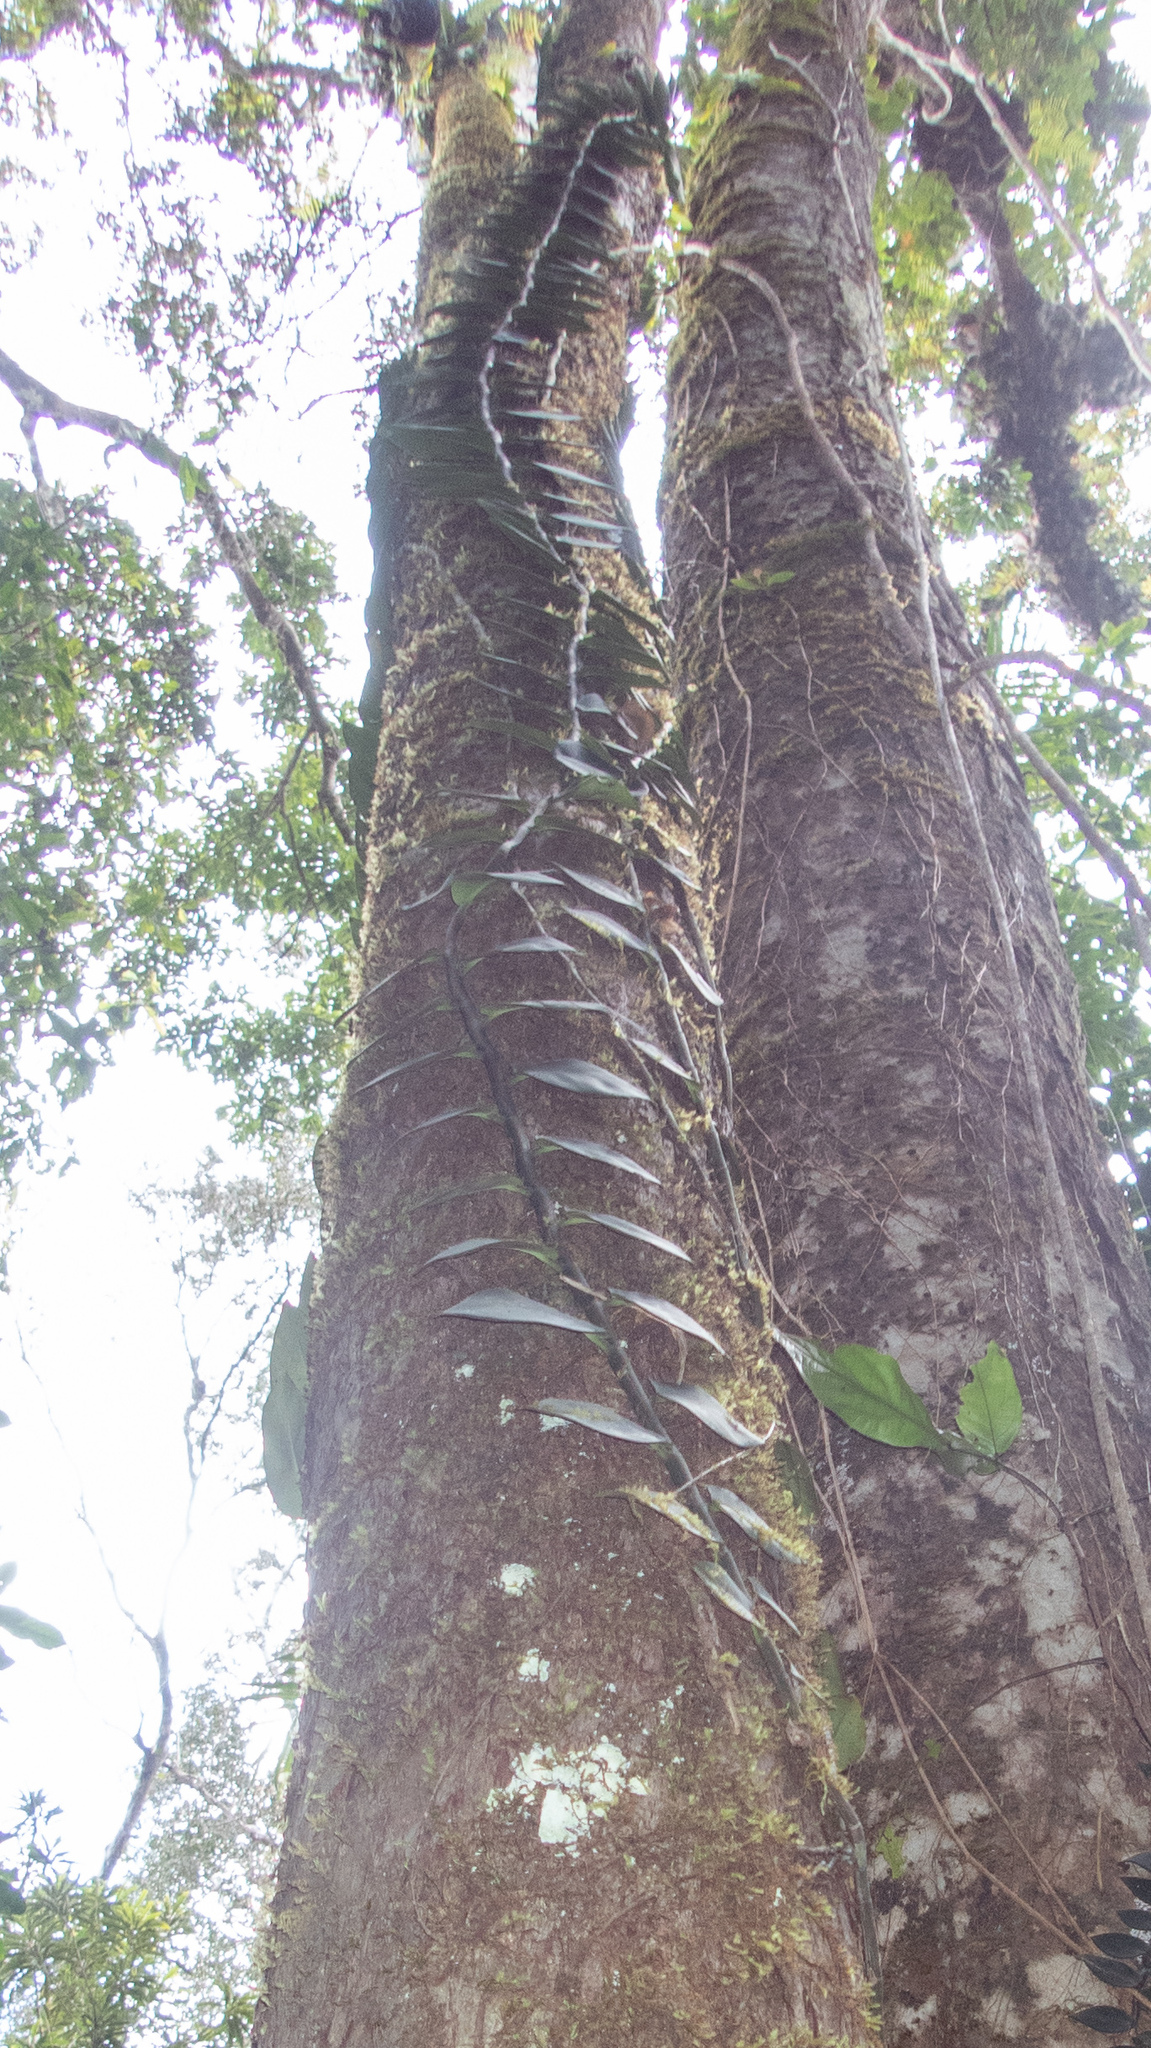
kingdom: Plantae
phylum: Tracheophyta
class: Liliopsida
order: Alismatales
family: Araceae
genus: Rhaphidophora
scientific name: Rhaphidophora hayi
